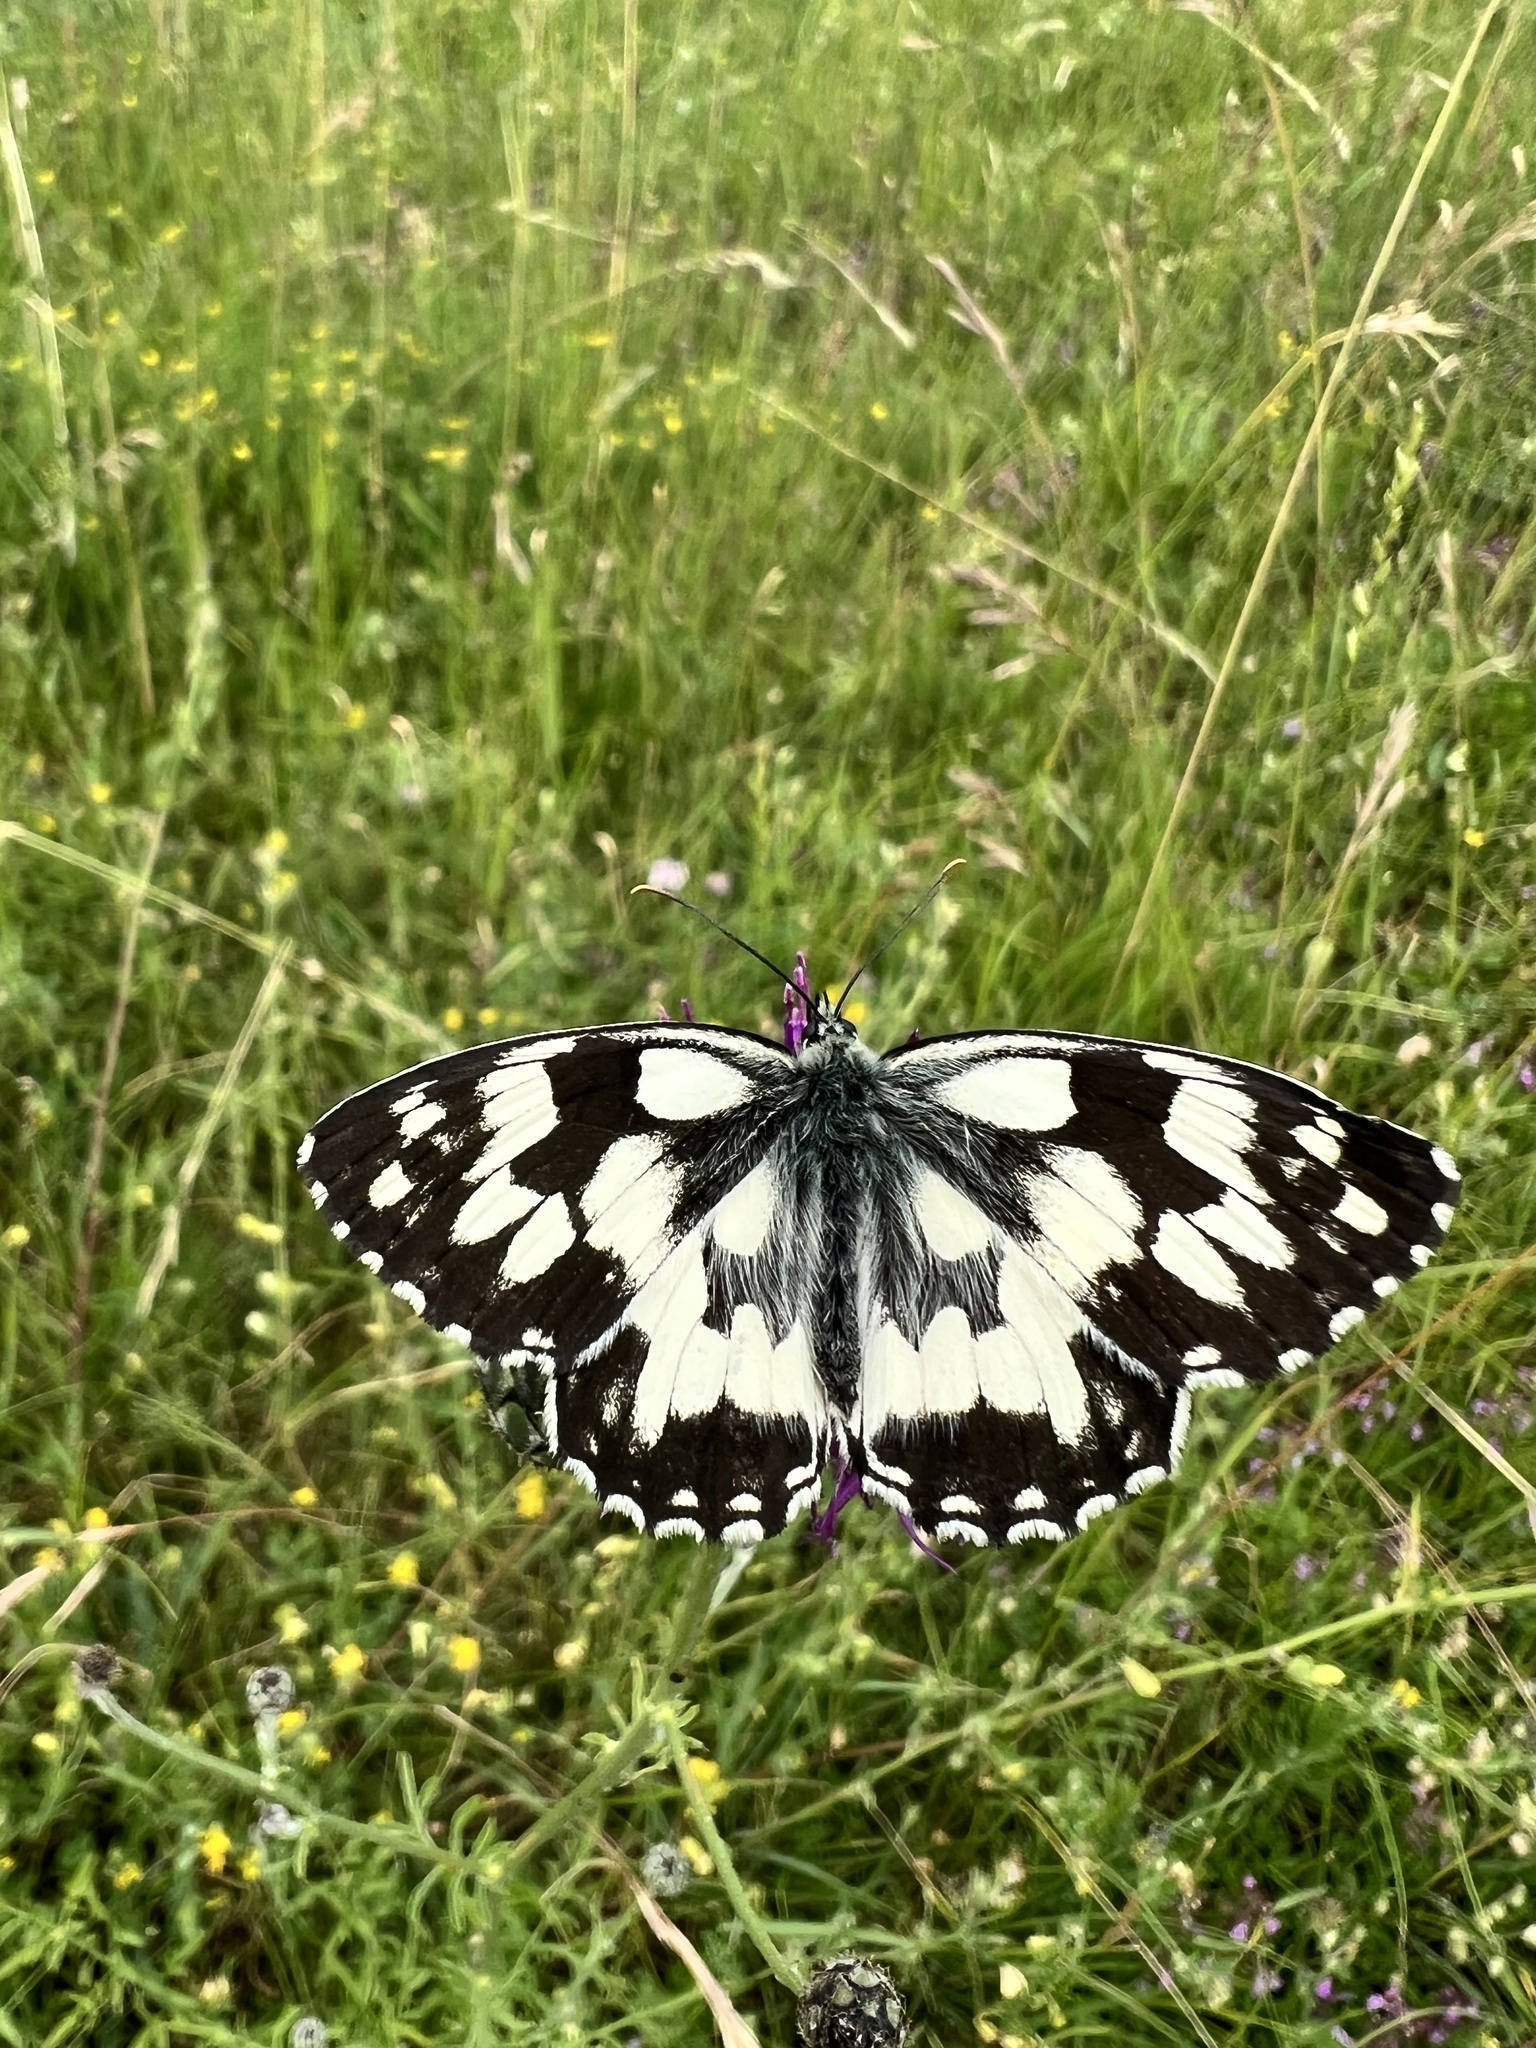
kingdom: Animalia
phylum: Arthropoda
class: Insecta
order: Lepidoptera
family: Nymphalidae
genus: Melanargia
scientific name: Melanargia galathea
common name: Marbled white
